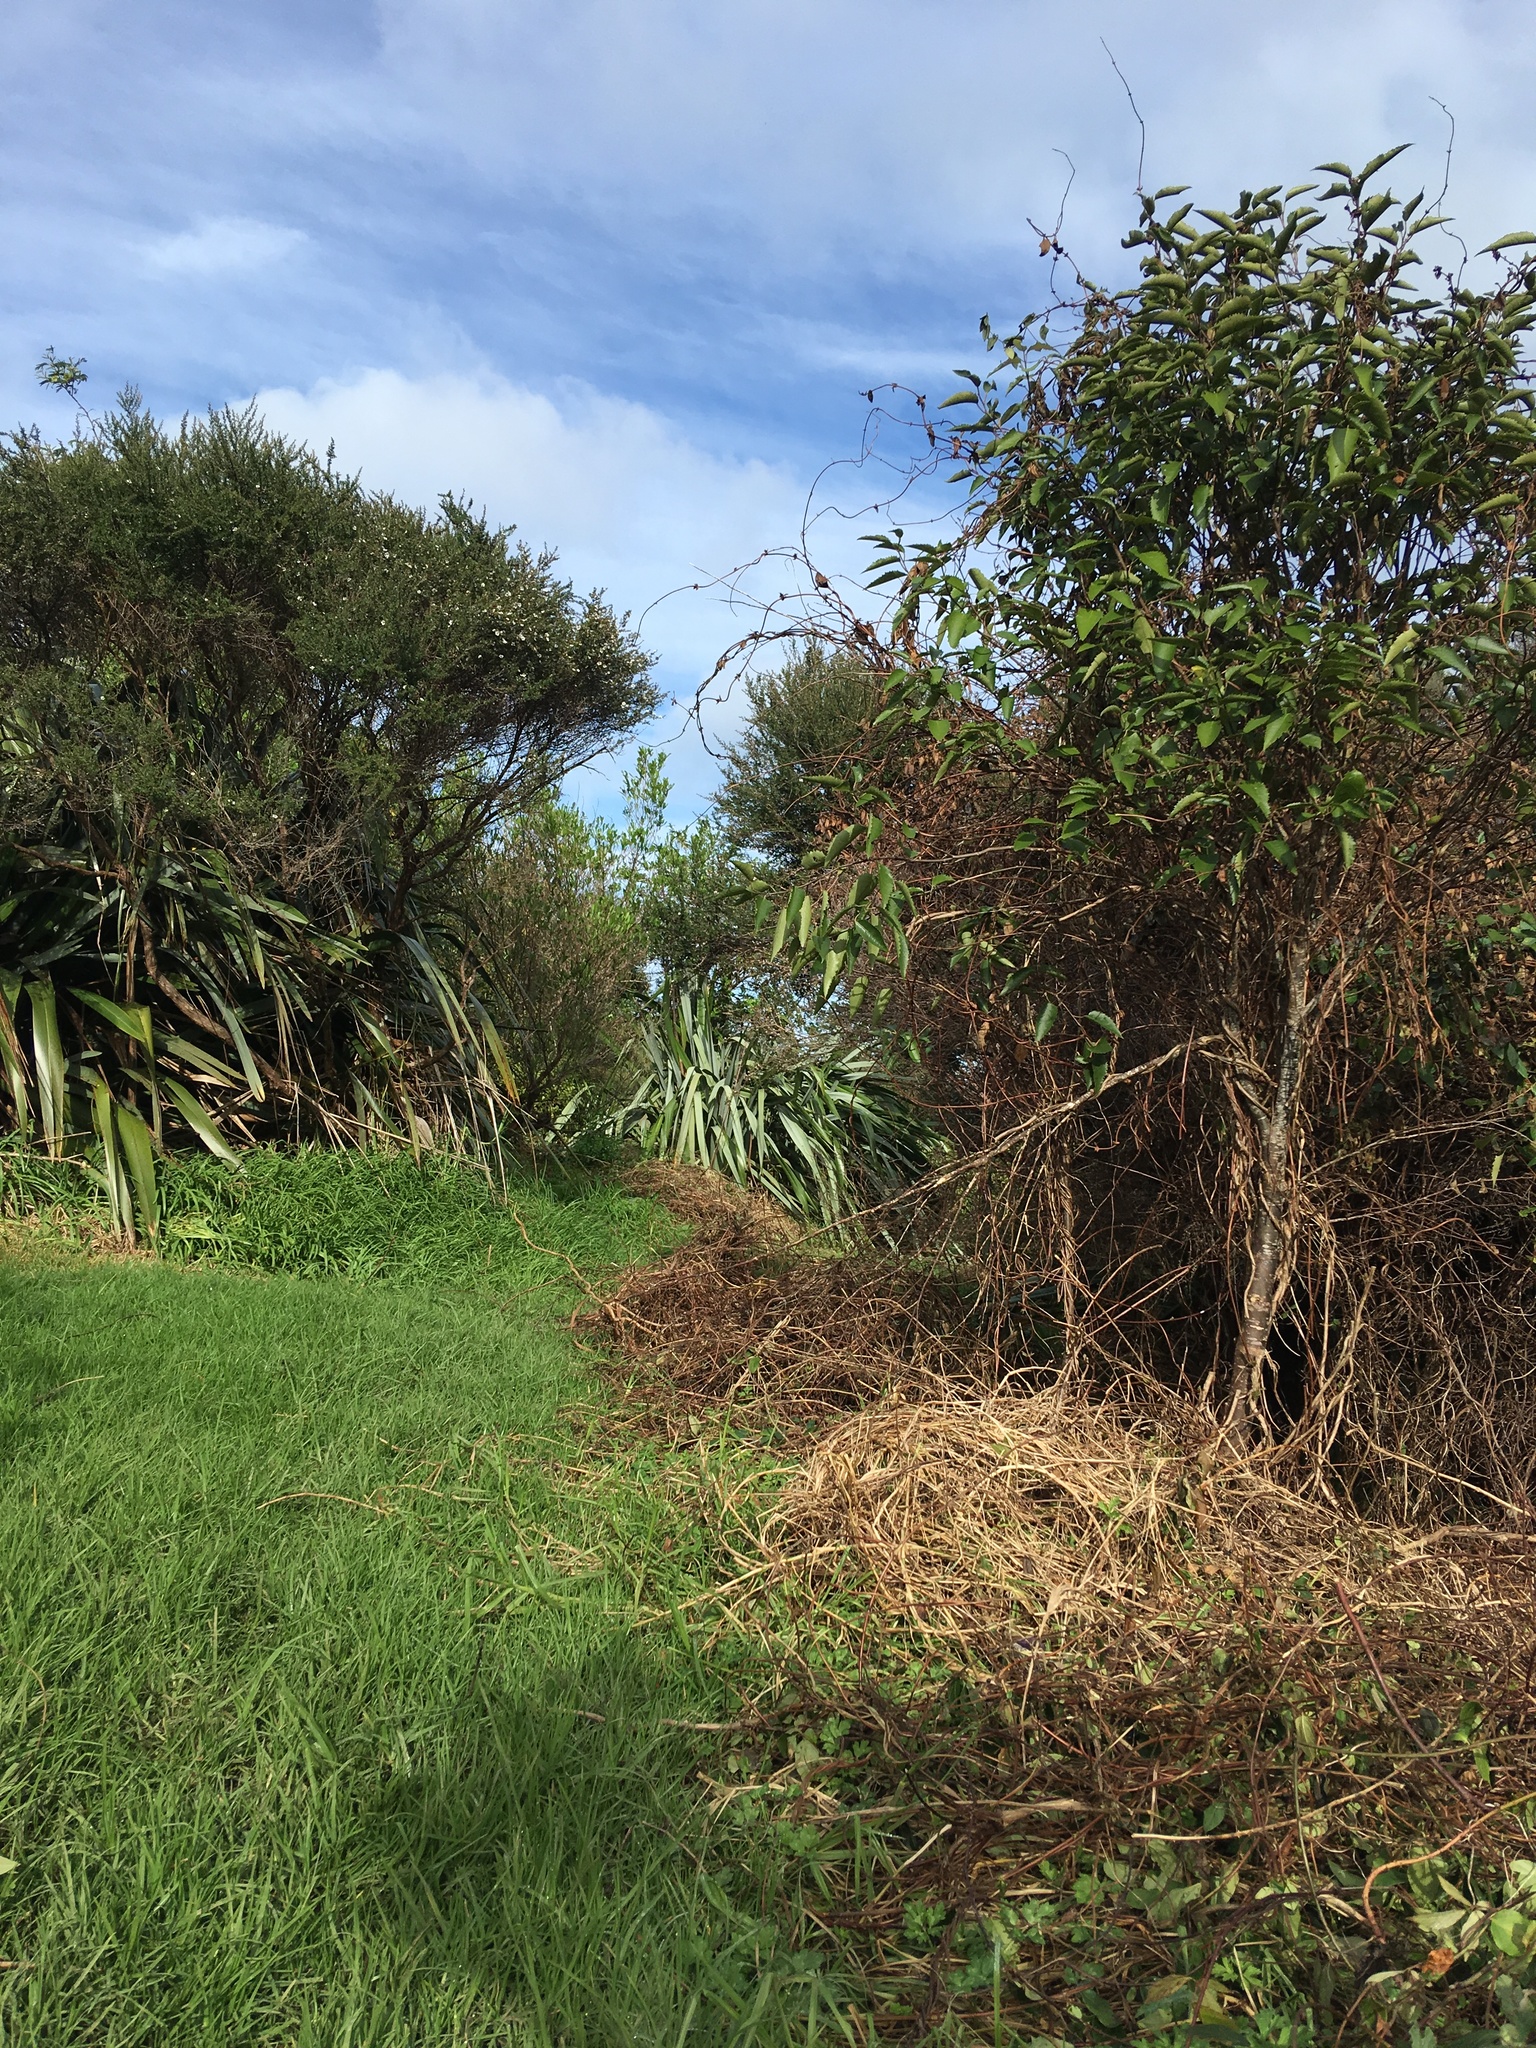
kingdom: Plantae
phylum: Tracheophyta
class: Liliopsida
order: Poales
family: Poaceae
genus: Cenchrus
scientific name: Cenchrus clandestinus
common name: Kikuyugrass
